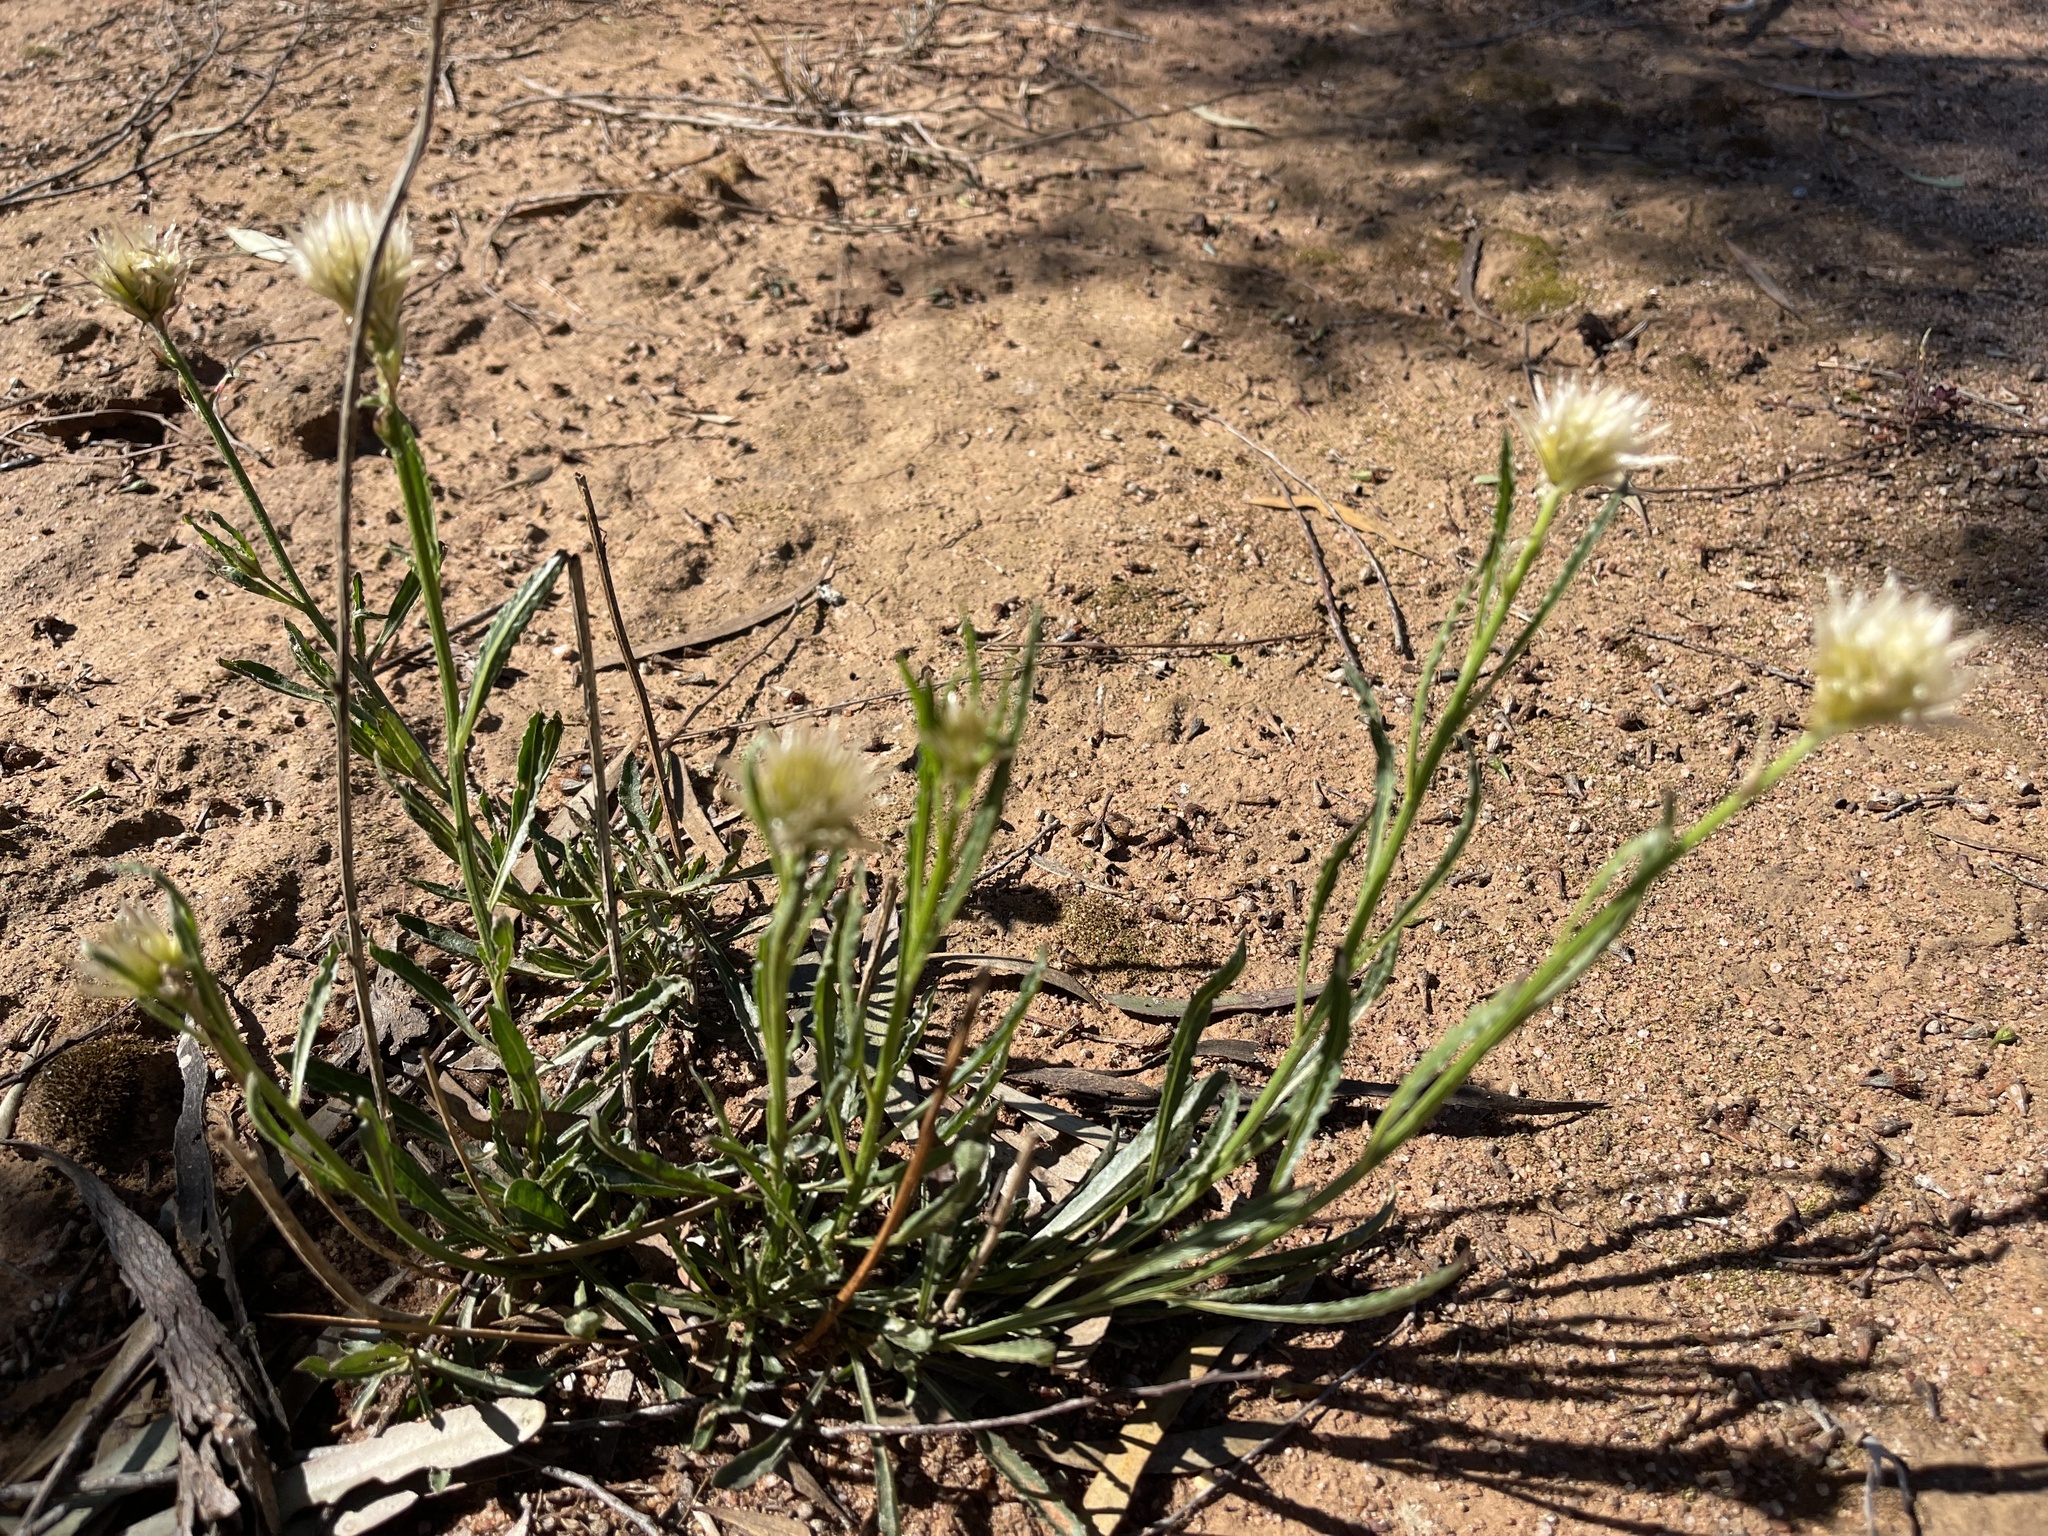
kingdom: Plantae
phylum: Tracheophyta
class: Magnoliopsida
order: Caryophyllales
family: Amaranthaceae
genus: Ptilotus
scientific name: Ptilotus macrocephalus
